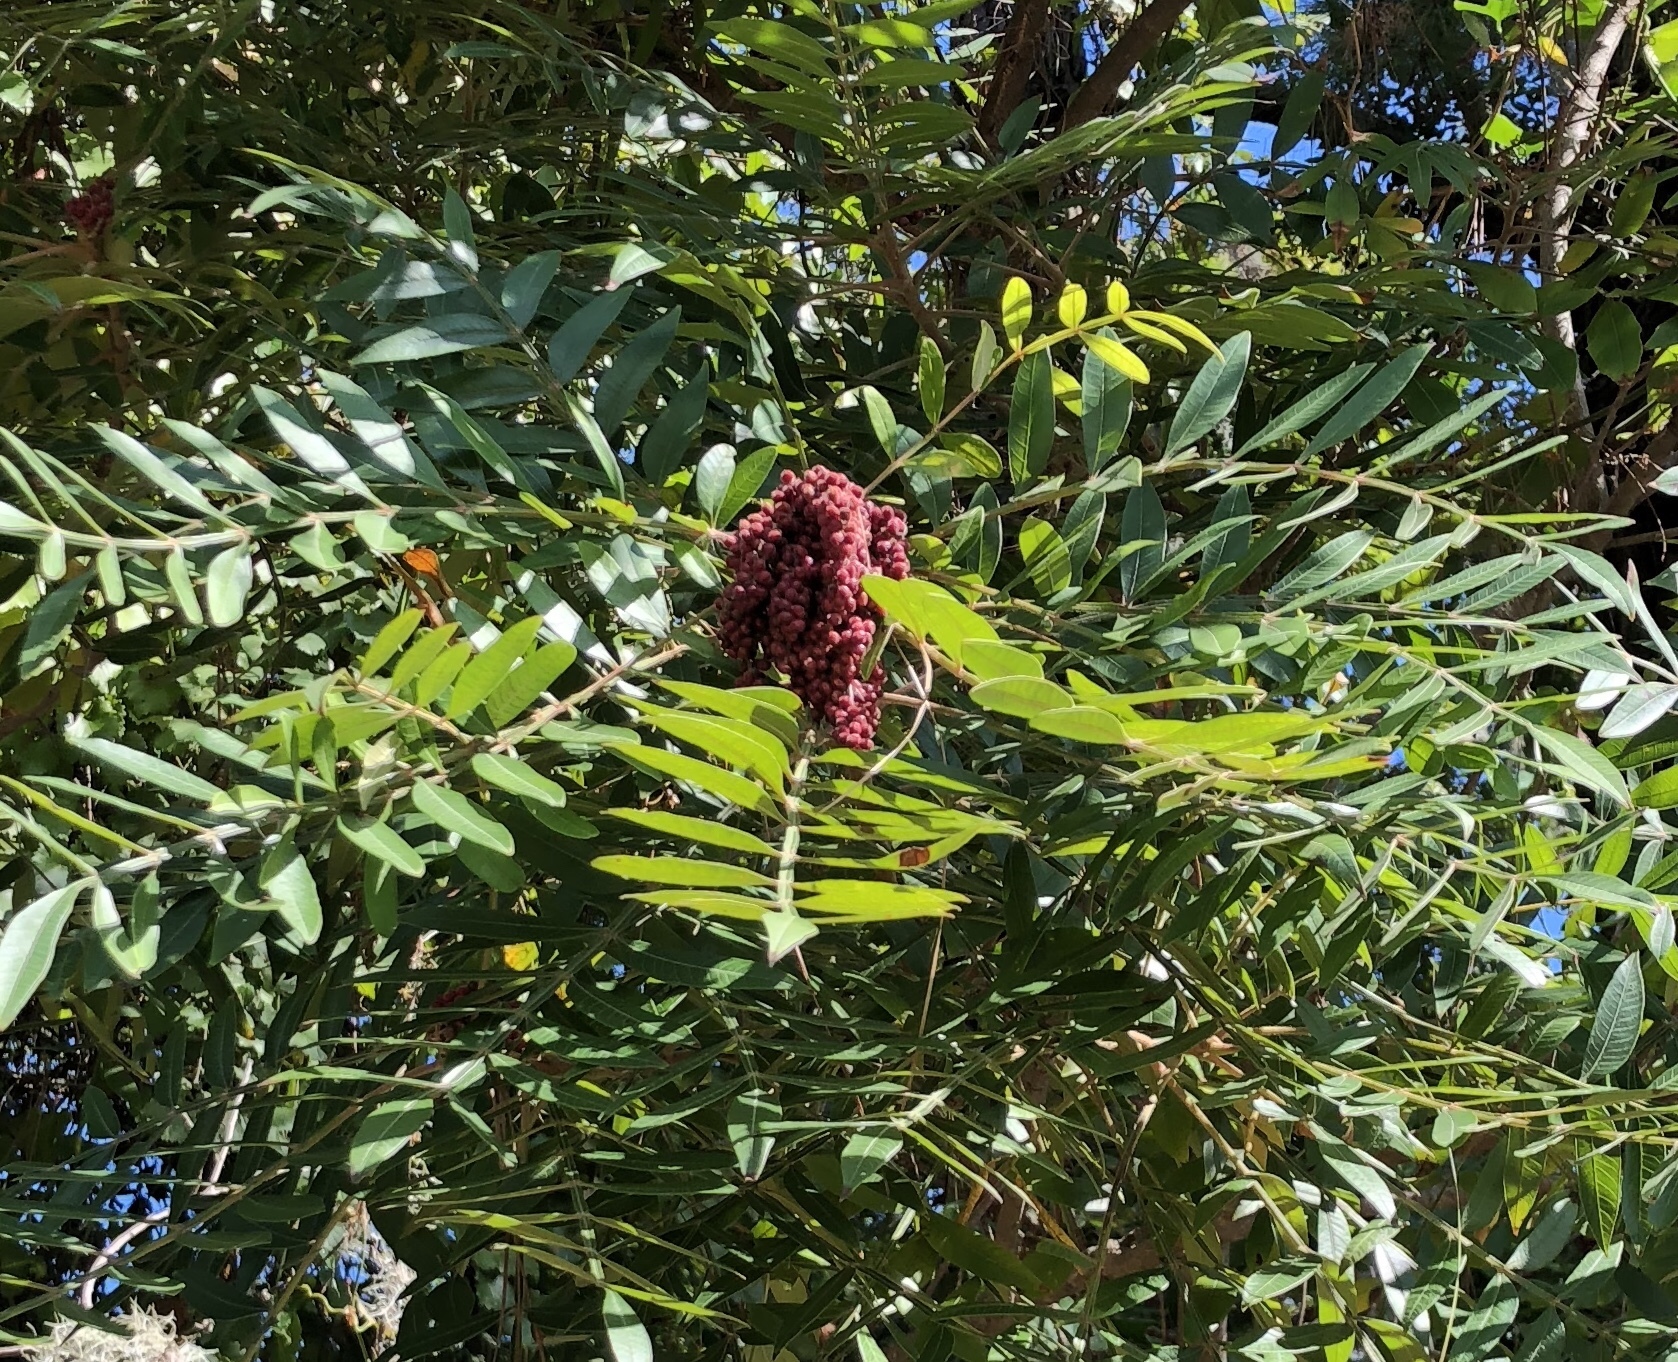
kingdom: Plantae
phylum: Tracheophyta
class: Magnoliopsida
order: Sapindales
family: Anacardiaceae
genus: Rhus
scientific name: Rhus copallina
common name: Shining sumac
